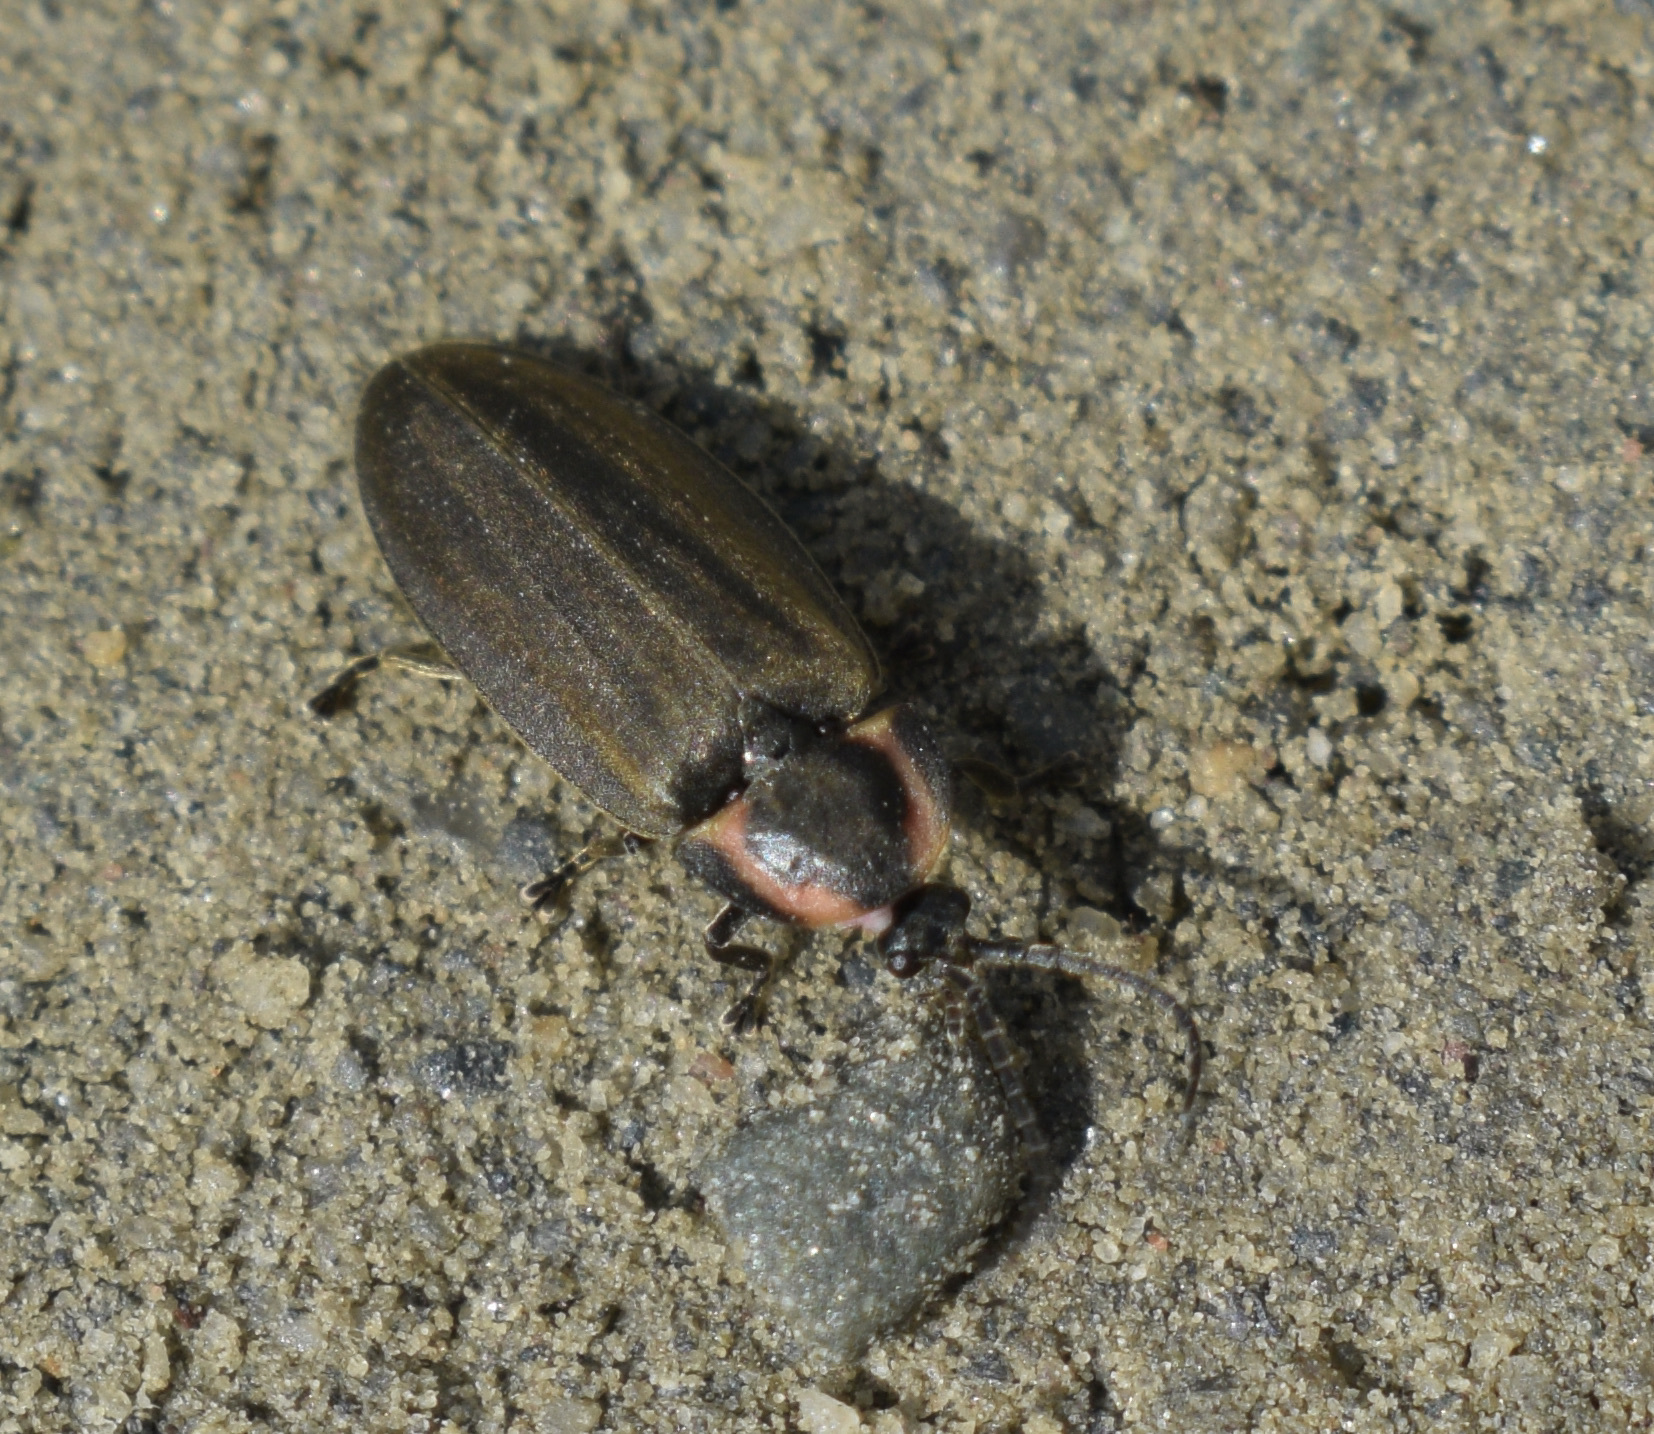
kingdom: Animalia
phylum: Arthropoda
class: Insecta
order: Coleoptera
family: Lampyridae
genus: Photinus
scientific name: Photinus corrusca
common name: Winter firefly
